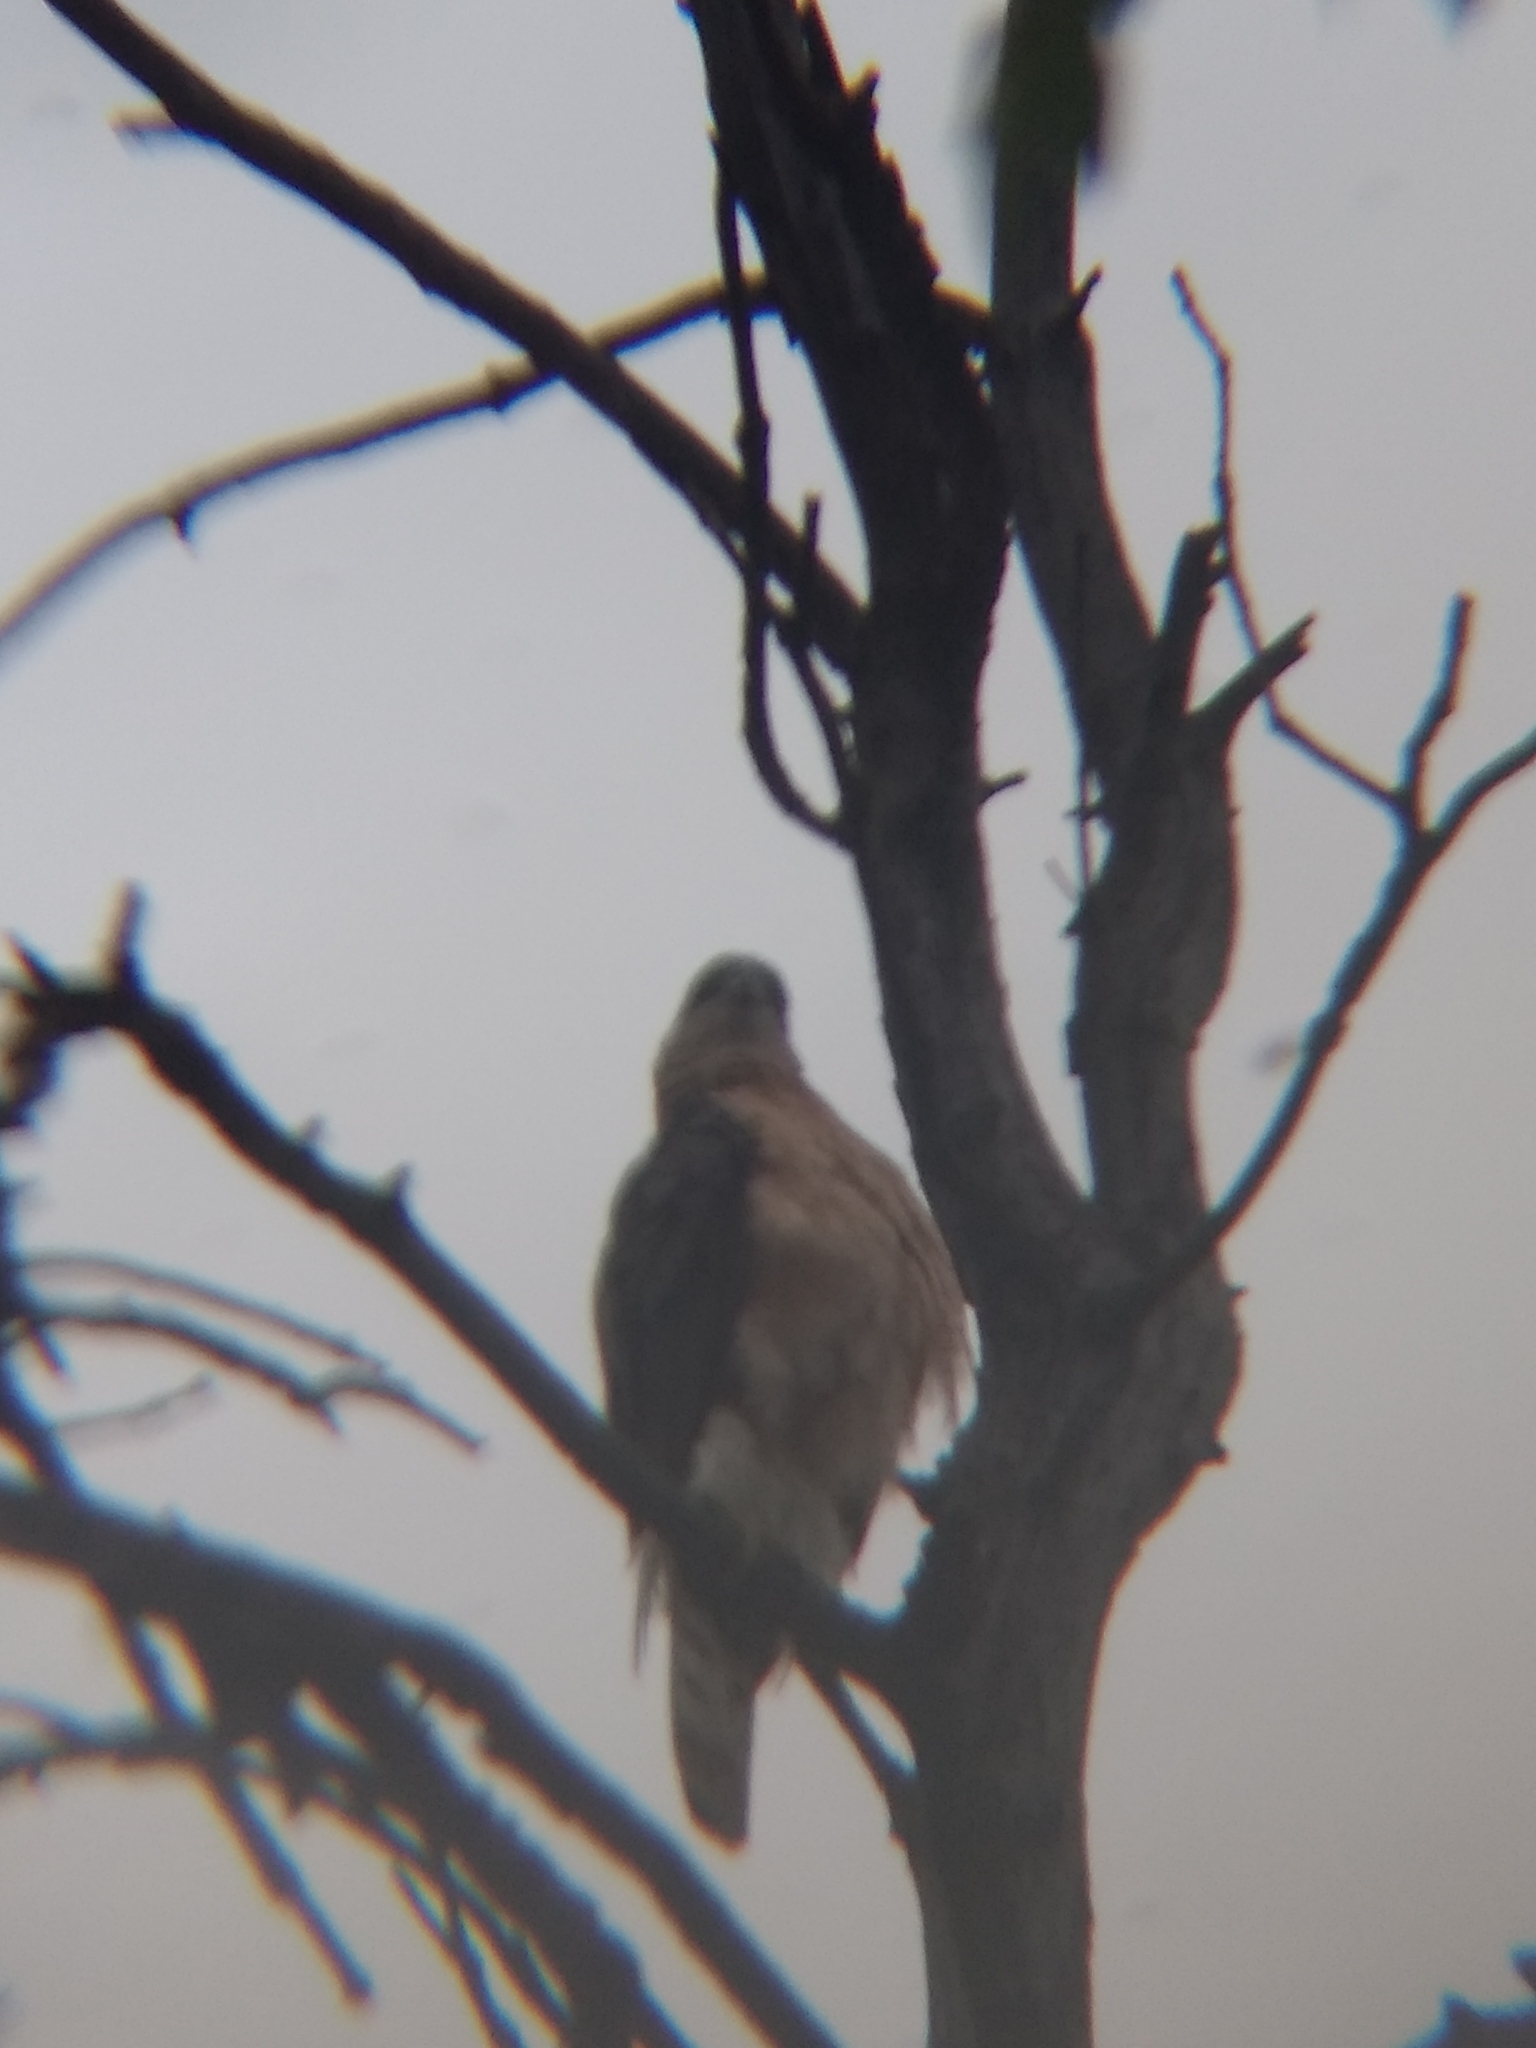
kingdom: Animalia
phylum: Chordata
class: Aves
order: Accipitriformes
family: Accipitridae
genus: Accipiter
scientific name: Accipiter cooperii
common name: Cooper's hawk
